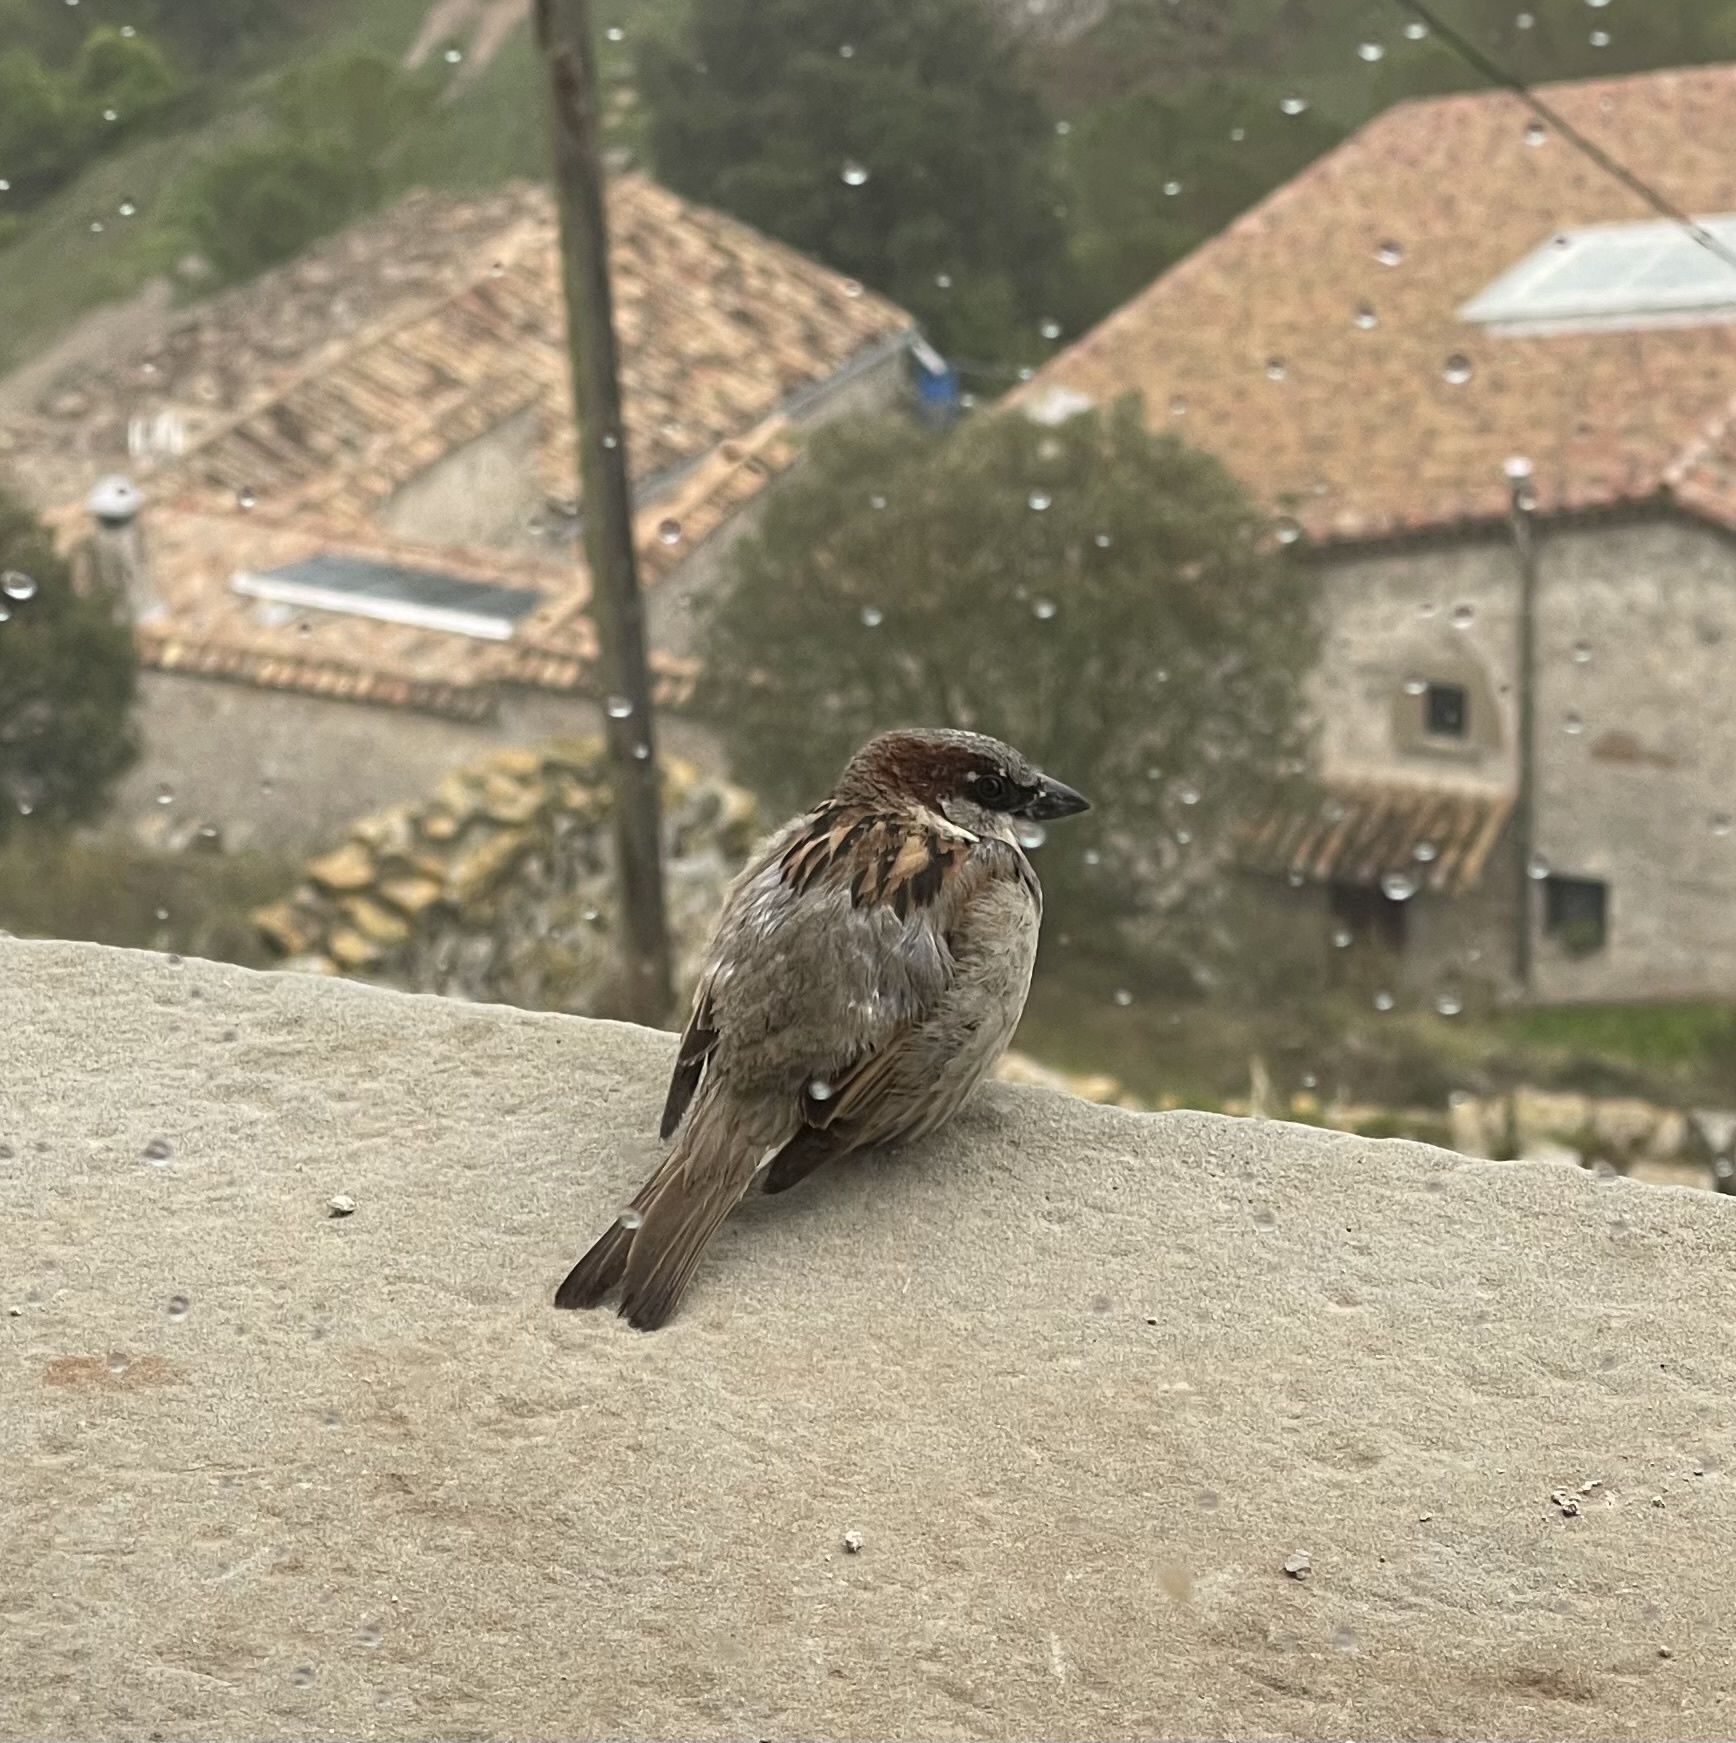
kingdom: Animalia
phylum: Chordata
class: Aves
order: Passeriformes
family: Passeridae
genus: Passer
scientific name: Passer domesticus
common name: House sparrow
